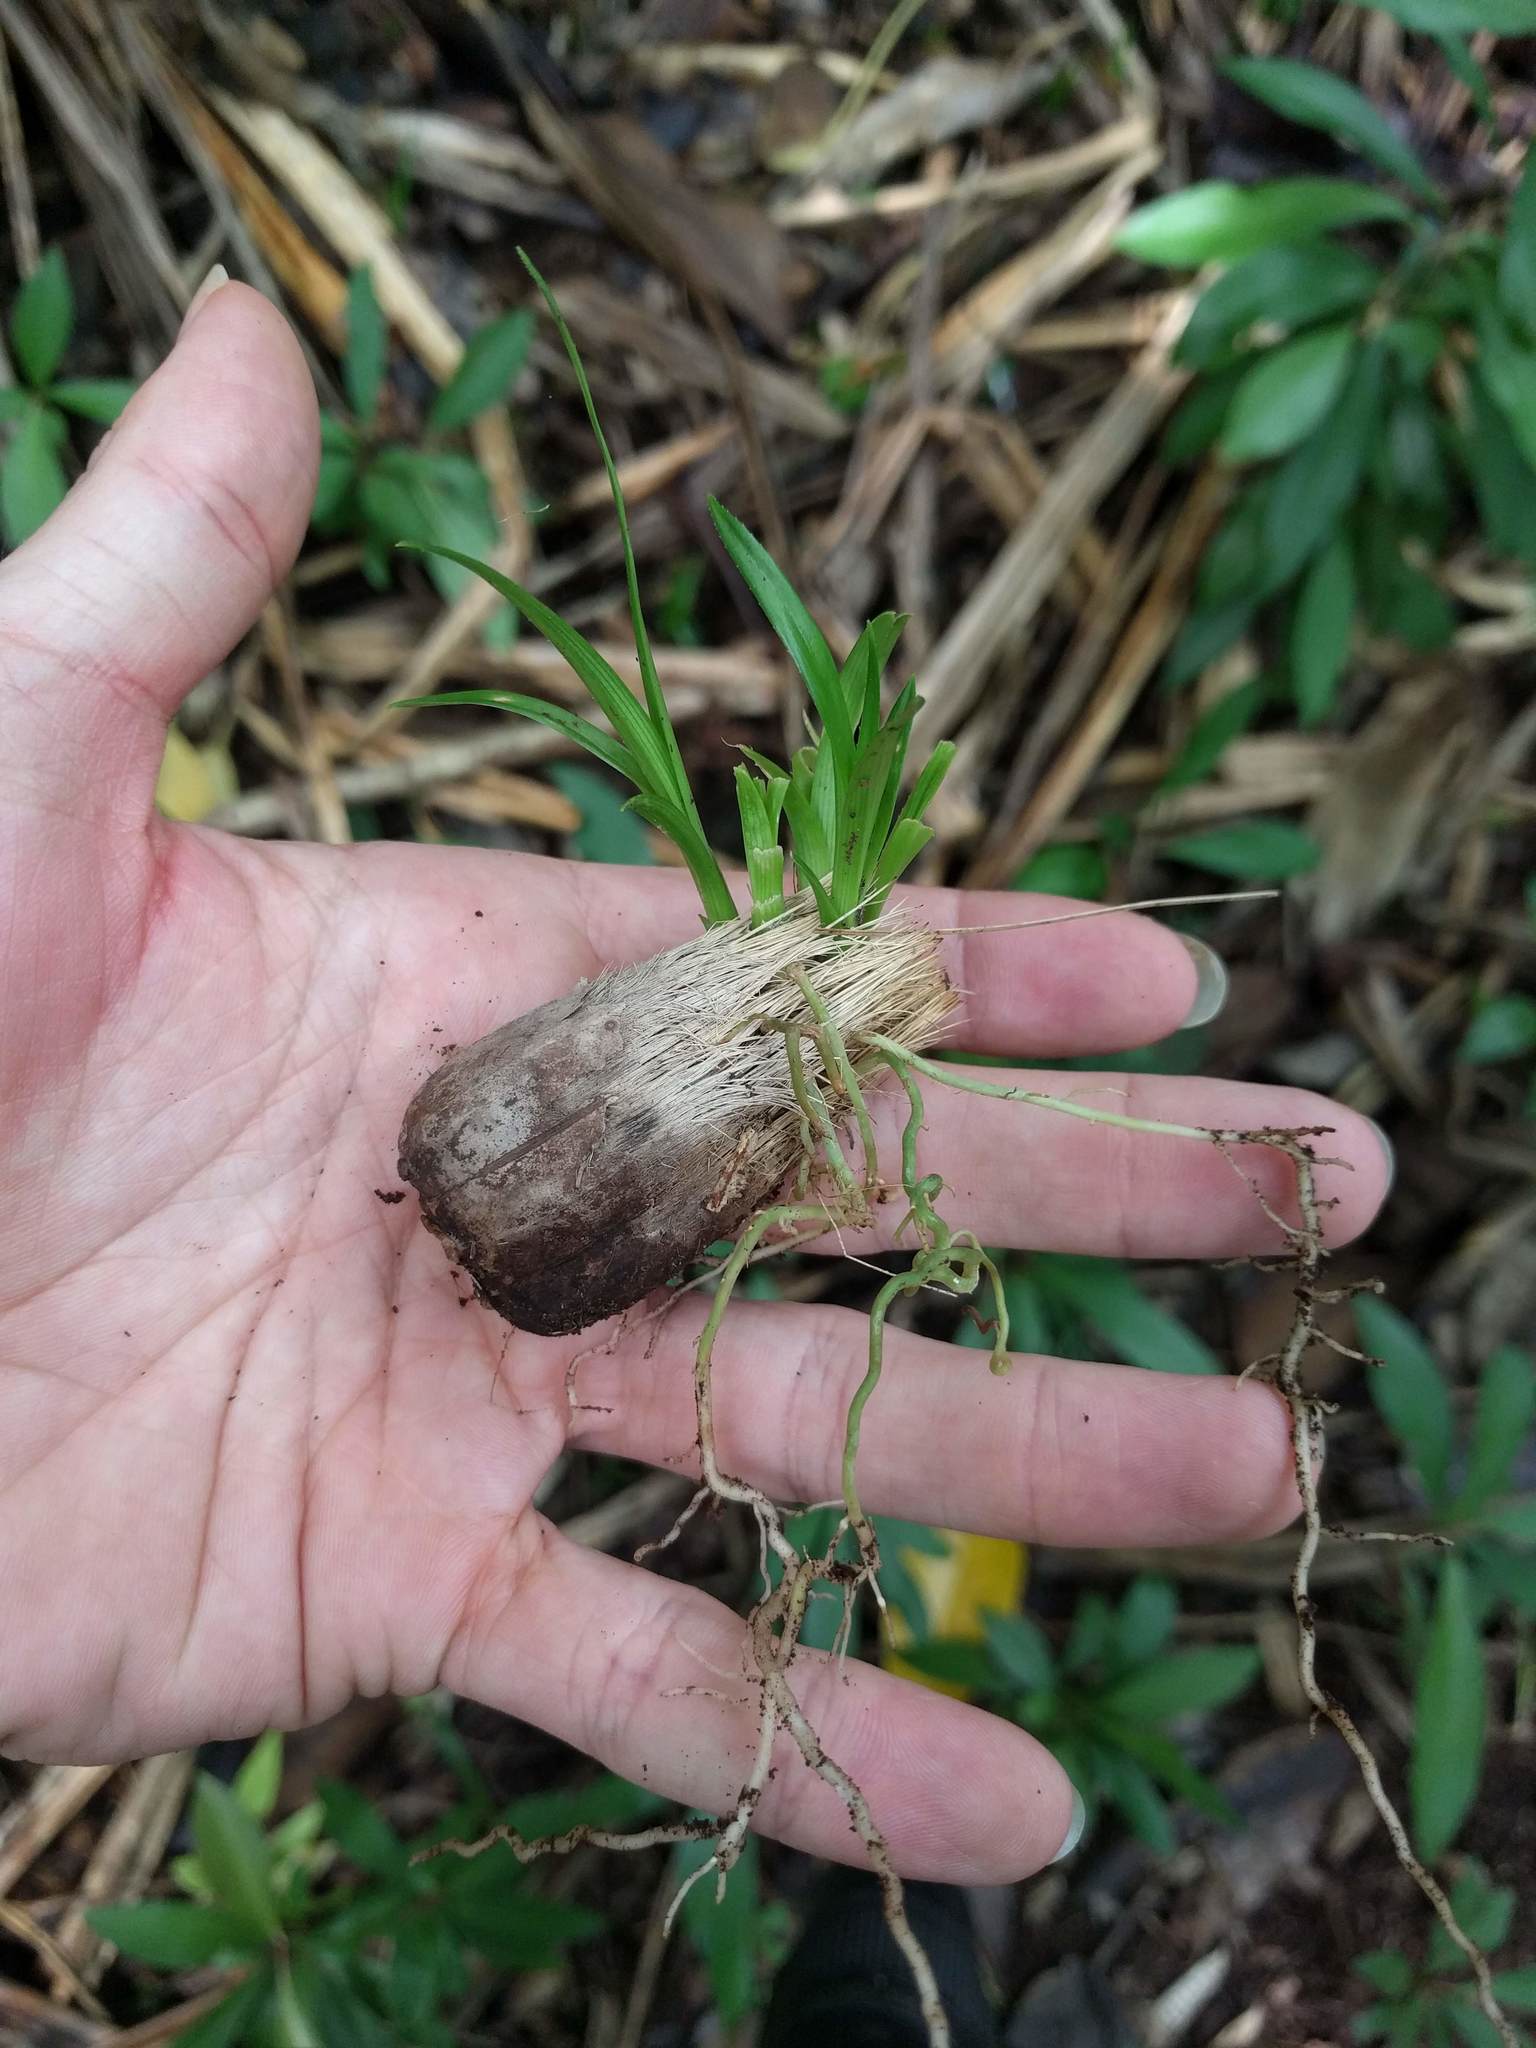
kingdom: Plantae
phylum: Tracheophyta
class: Liliopsida
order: Pandanales
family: Pandanaceae
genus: Pandanus
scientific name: Pandanus tectorius
